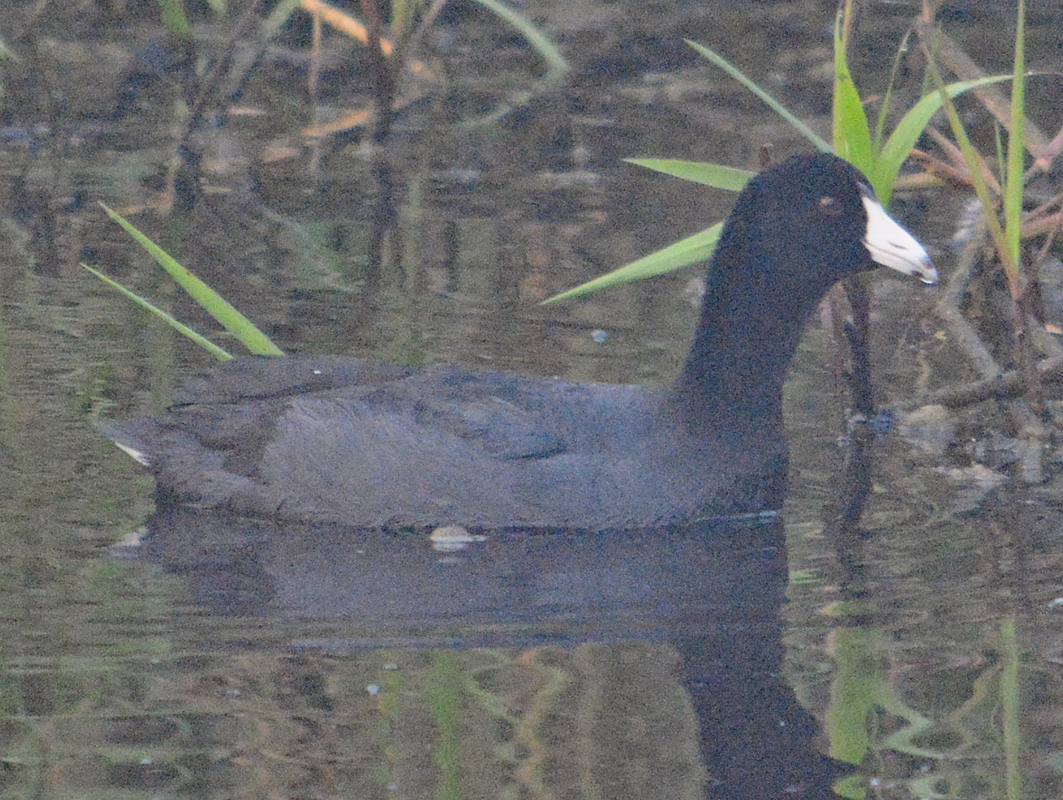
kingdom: Animalia
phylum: Chordata
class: Aves
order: Gruiformes
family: Rallidae
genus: Fulica
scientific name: Fulica americana
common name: American coot
